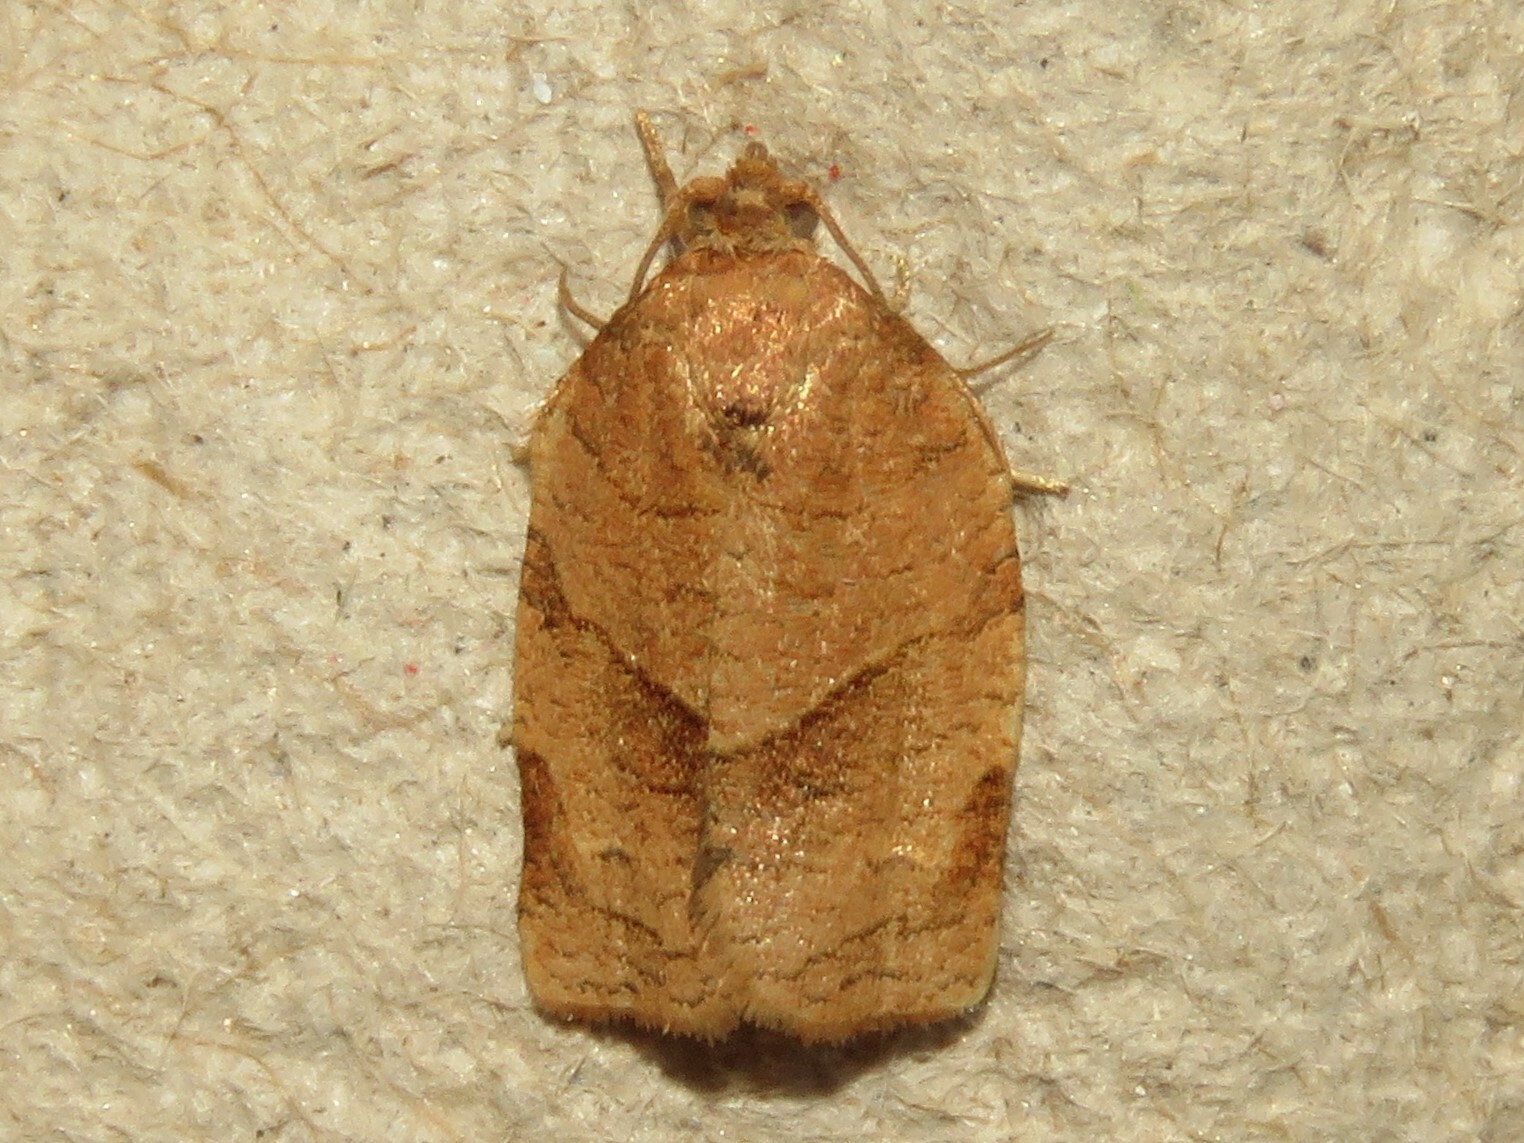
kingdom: Animalia
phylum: Arthropoda
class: Insecta
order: Lepidoptera
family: Tortricidae
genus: Choristoneura
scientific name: Choristoneura rosaceana
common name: Oblique-banded leafroller moth
